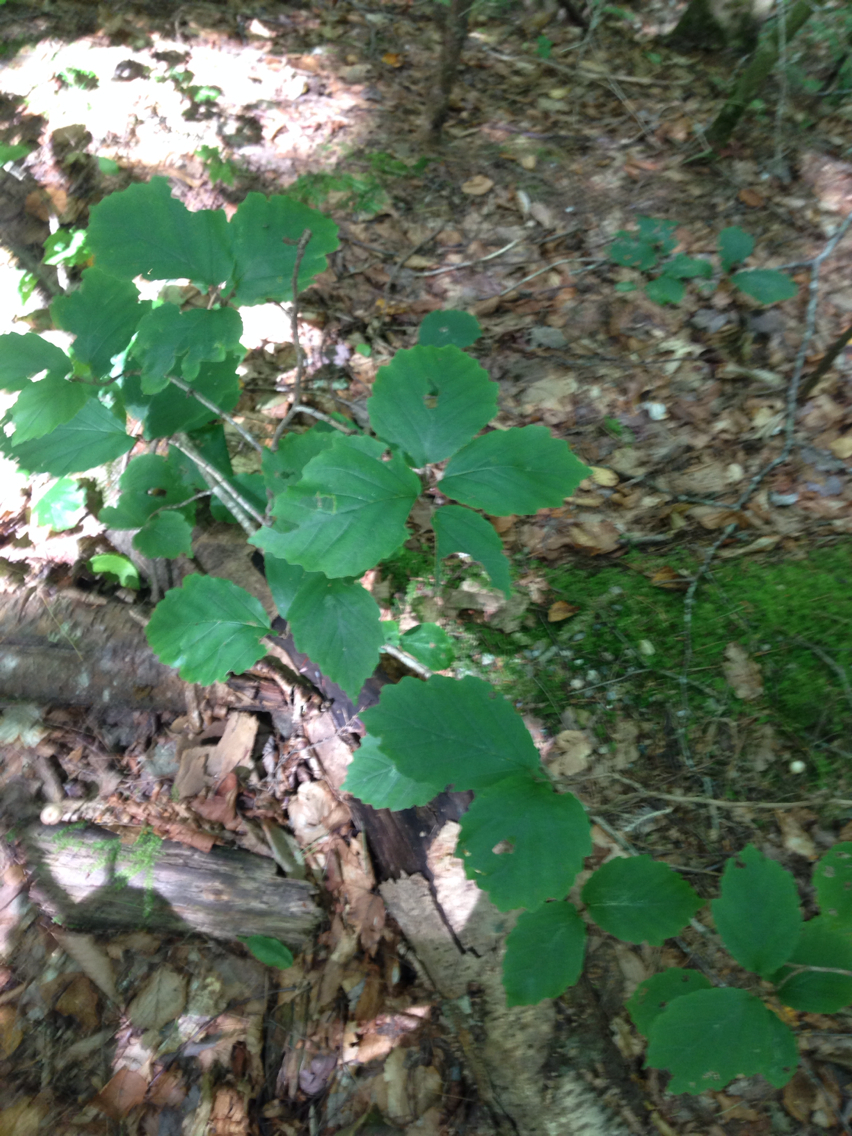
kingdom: Plantae
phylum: Tracheophyta
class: Magnoliopsida
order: Saxifragales
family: Hamamelidaceae
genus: Hamamelis
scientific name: Hamamelis virginiana
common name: Witch-hazel
